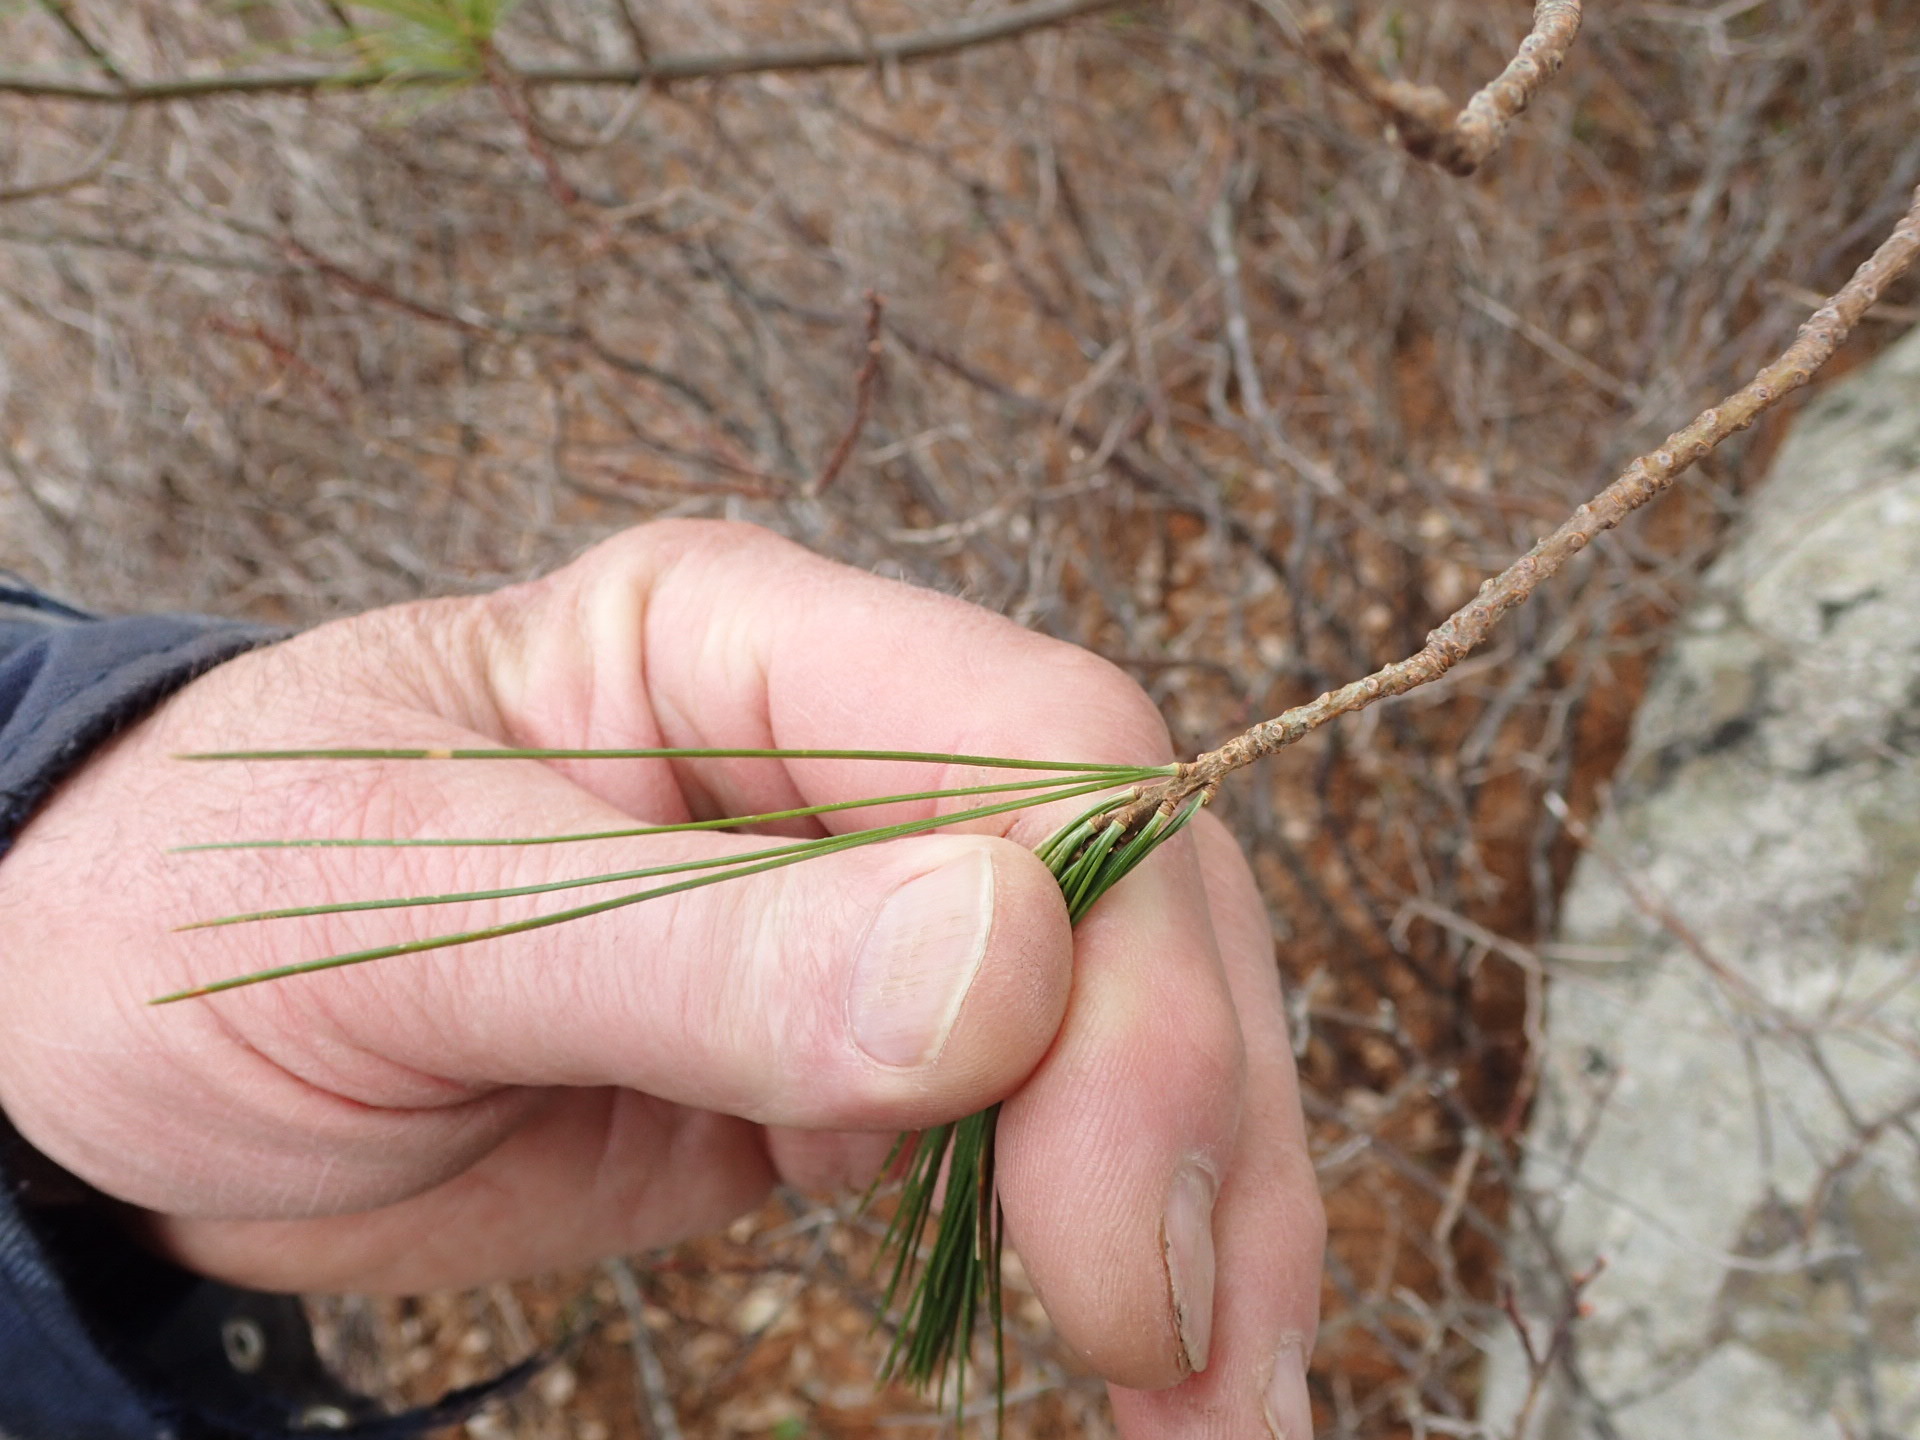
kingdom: Plantae
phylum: Tracheophyta
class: Pinopsida
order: Pinales
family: Pinaceae
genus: Pinus
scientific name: Pinus strobus
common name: Weymouth pine
